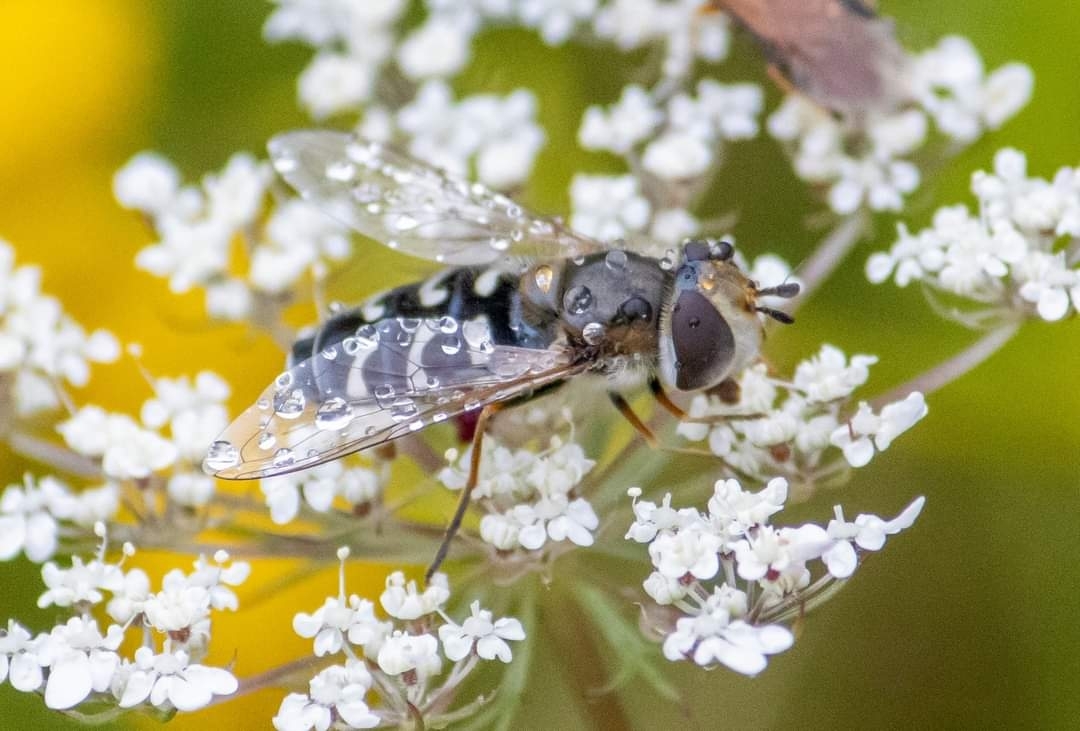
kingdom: Animalia
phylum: Arthropoda
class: Insecta
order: Diptera
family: Syrphidae
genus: Scaeva
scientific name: Scaeva pyrastri
